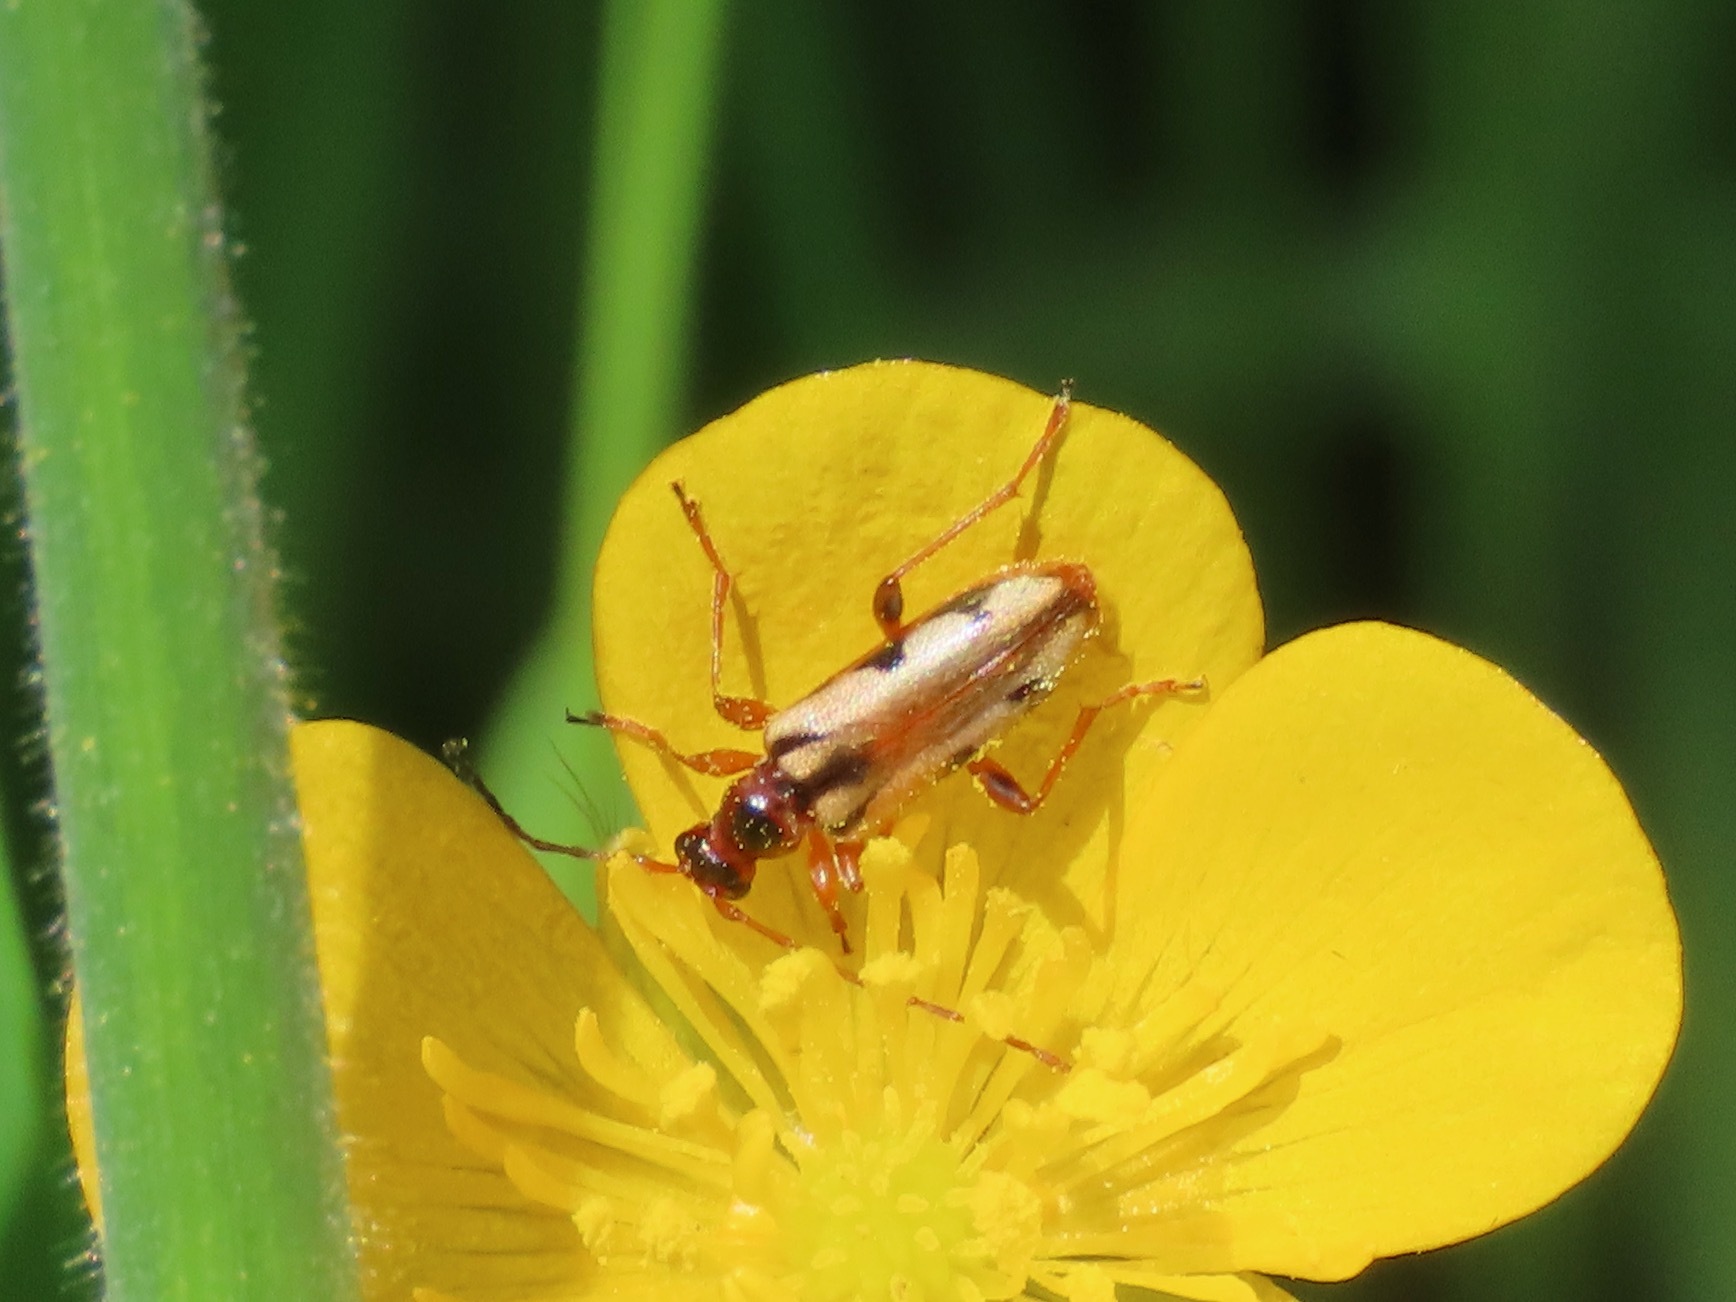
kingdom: Animalia
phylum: Arthropoda
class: Insecta
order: Coleoptera
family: Cerambycidae
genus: Pidonia
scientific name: Pidonia scripta
